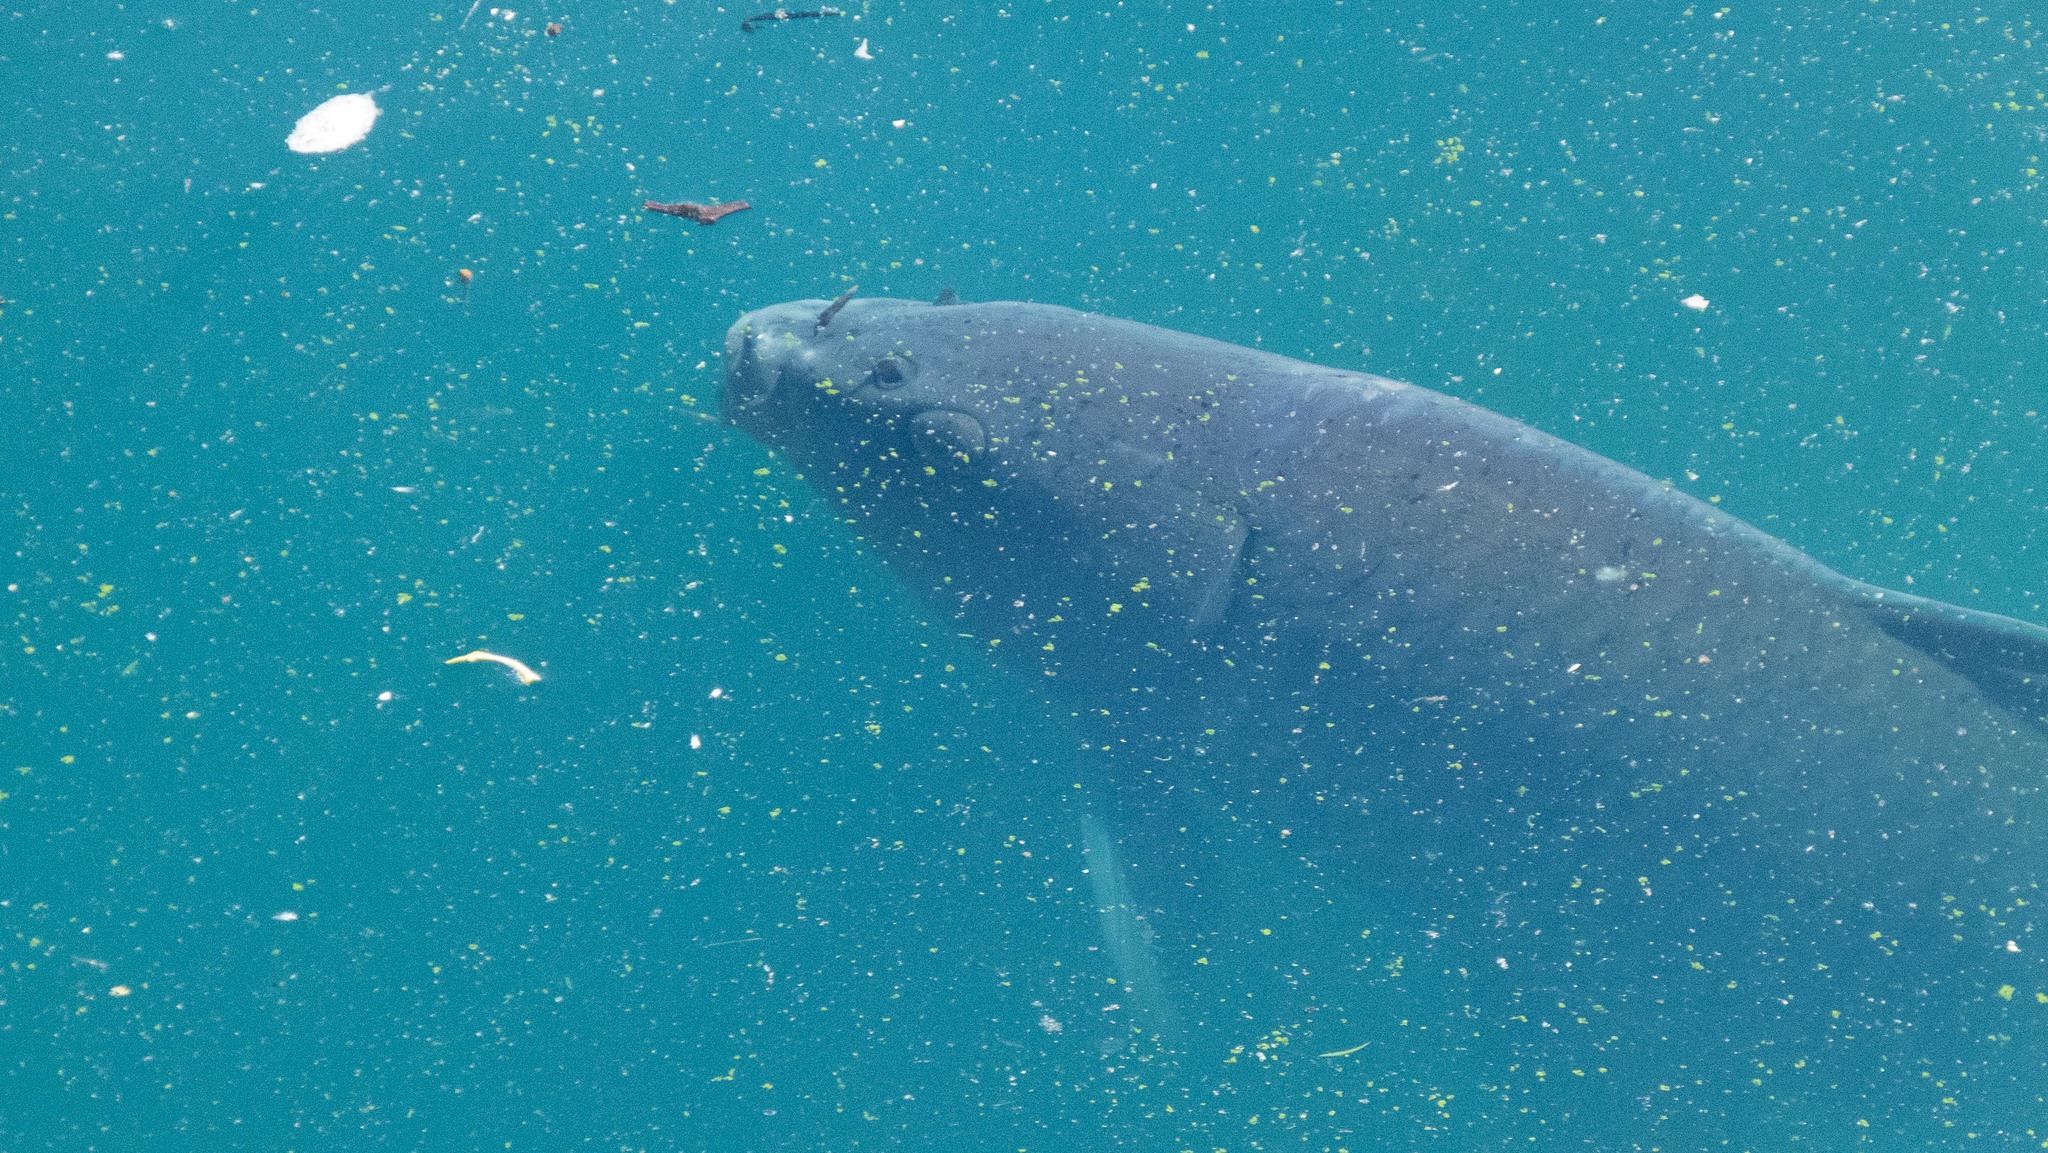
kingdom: Animalia
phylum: Chordata
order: Cypriniformes
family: Cyprinidae
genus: Cyprinus
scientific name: Cyprinus carpio
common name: Common carp
